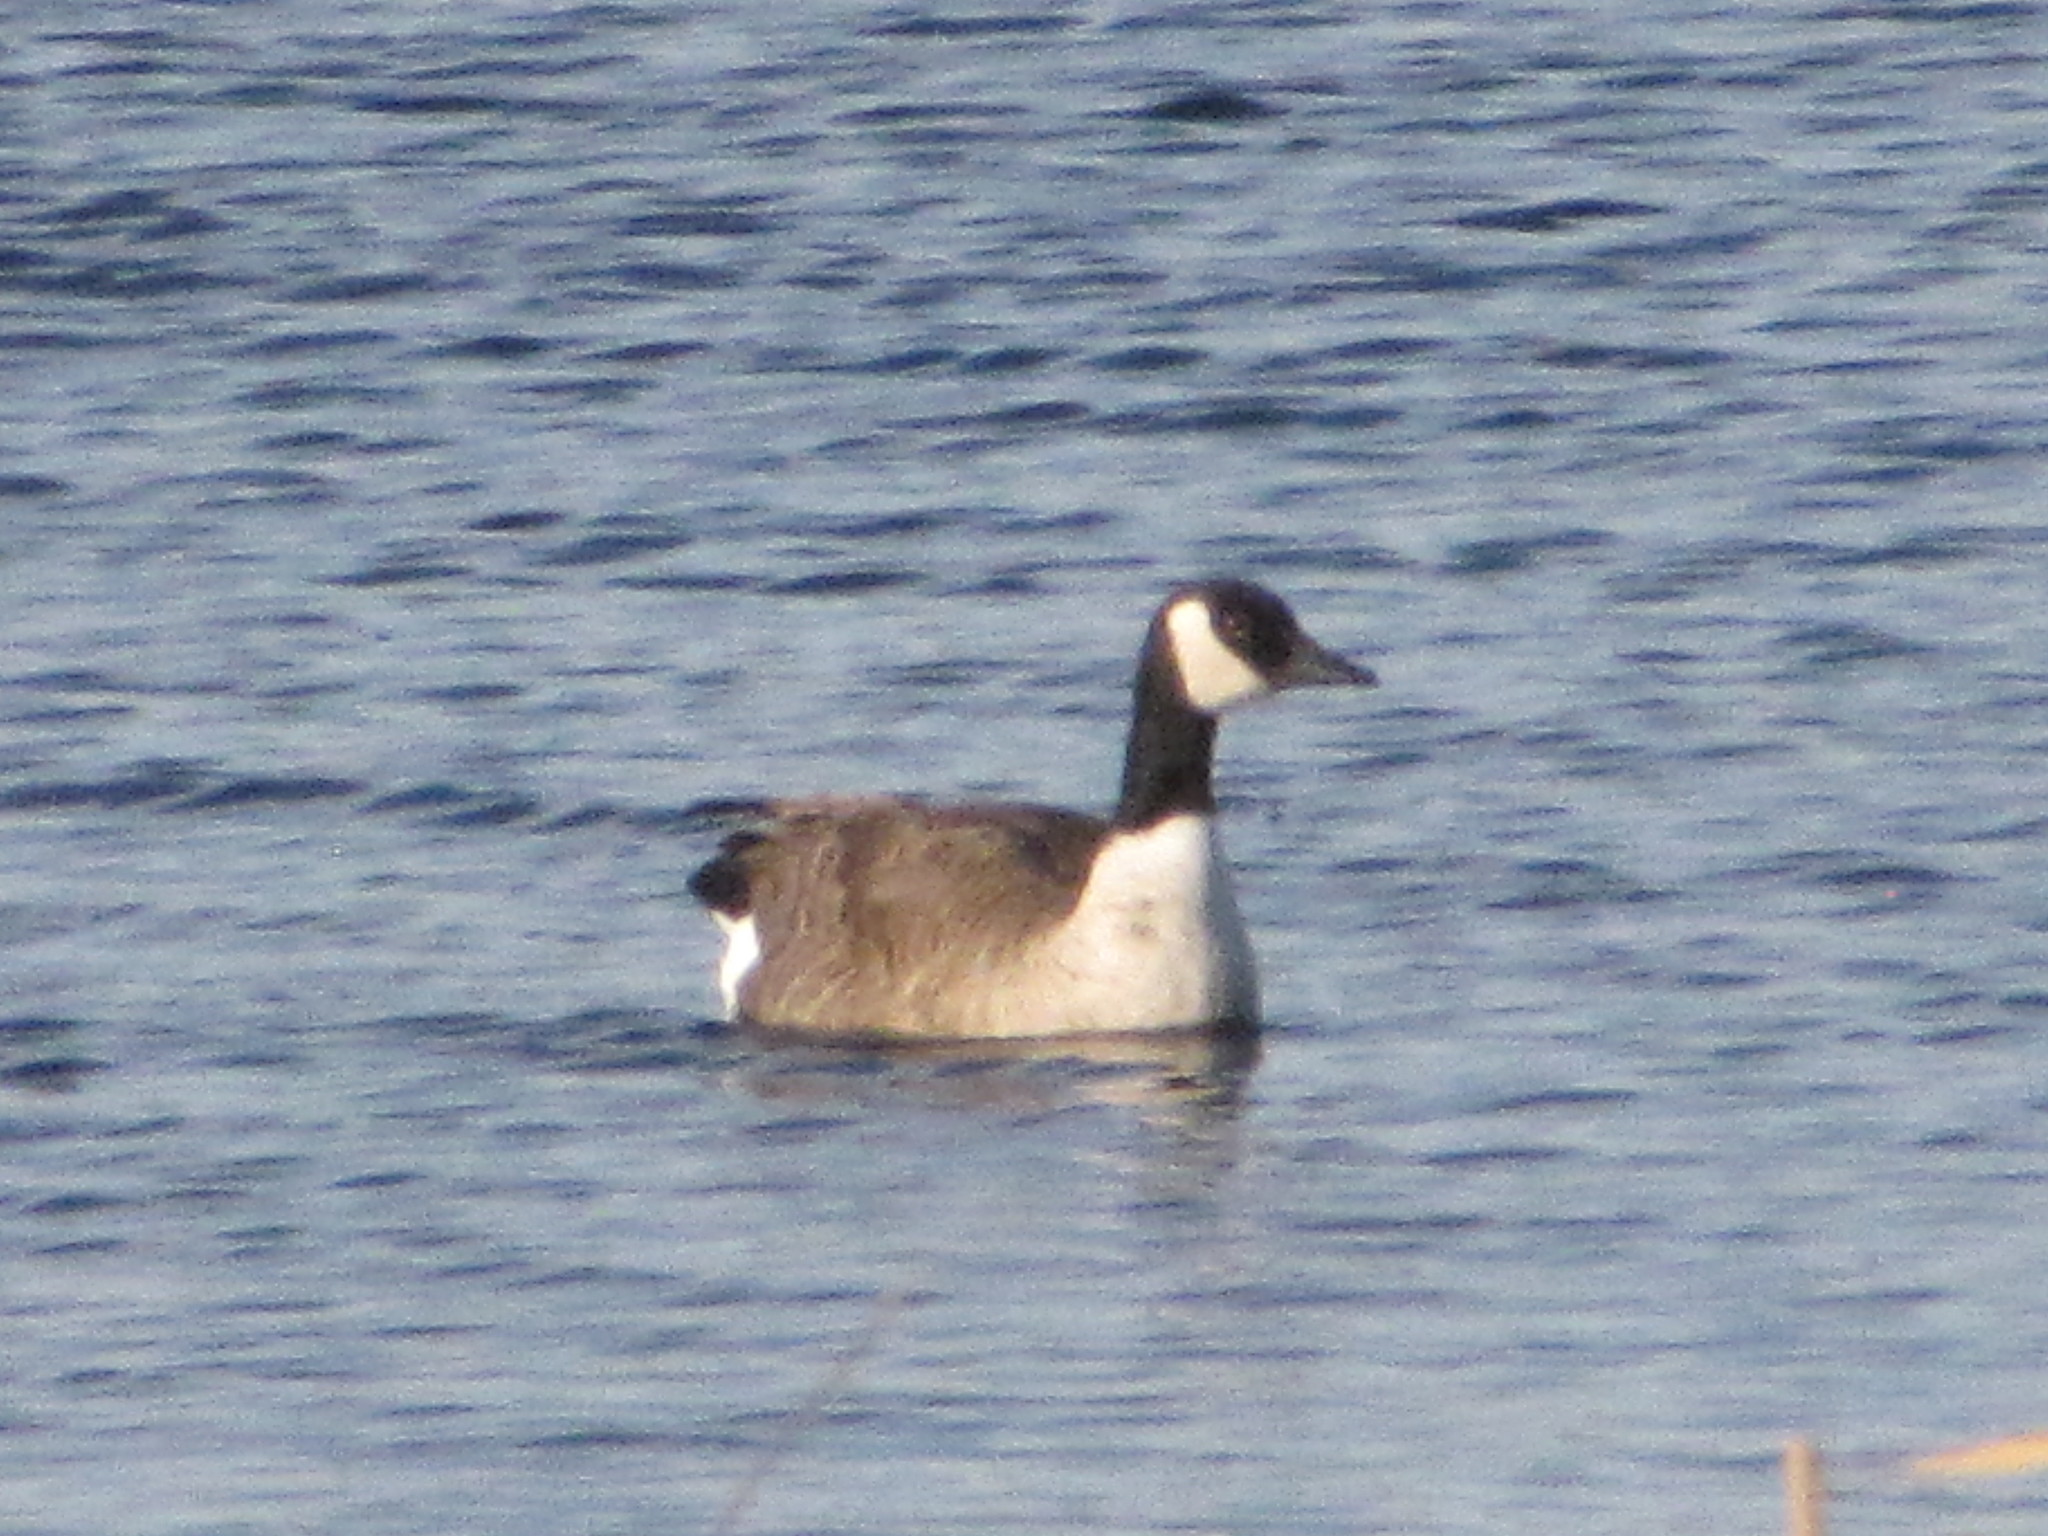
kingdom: Animalia
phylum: Chordata
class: Aves
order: Anseriformes
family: Anatidae
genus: Branta
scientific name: Branta canadensis
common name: Canada goose
